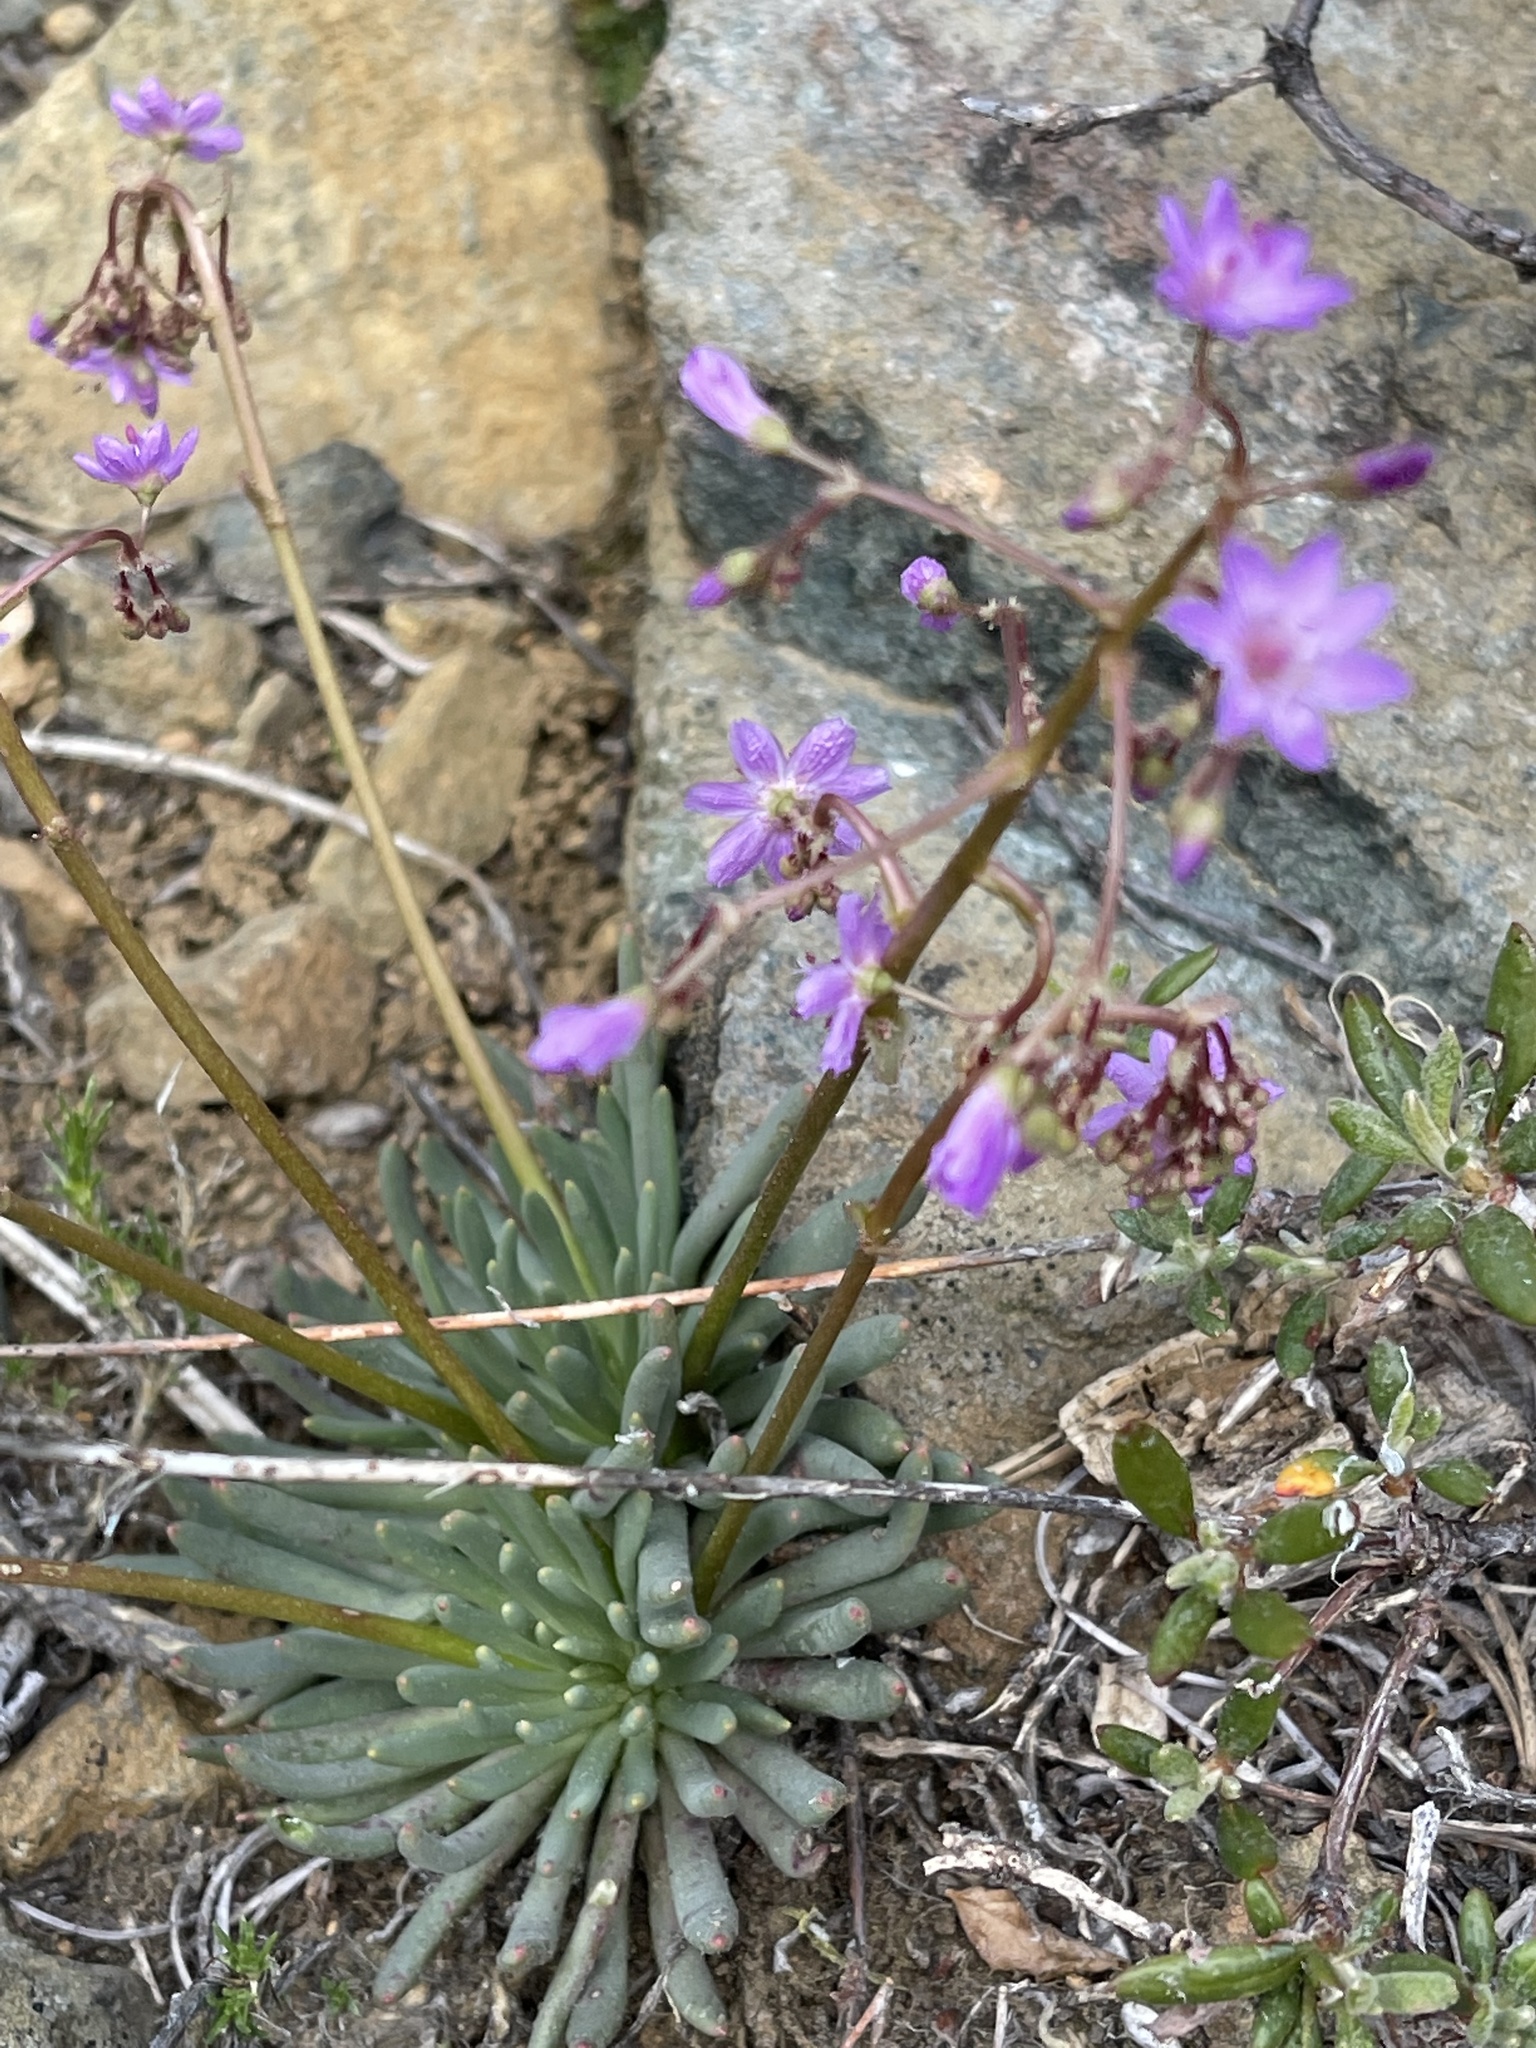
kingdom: Plantae
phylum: Tracheophyta
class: Magnoliopsida
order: Caryophyllales
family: Montiaceae
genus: Lewisia
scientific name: Lewisia leeana
